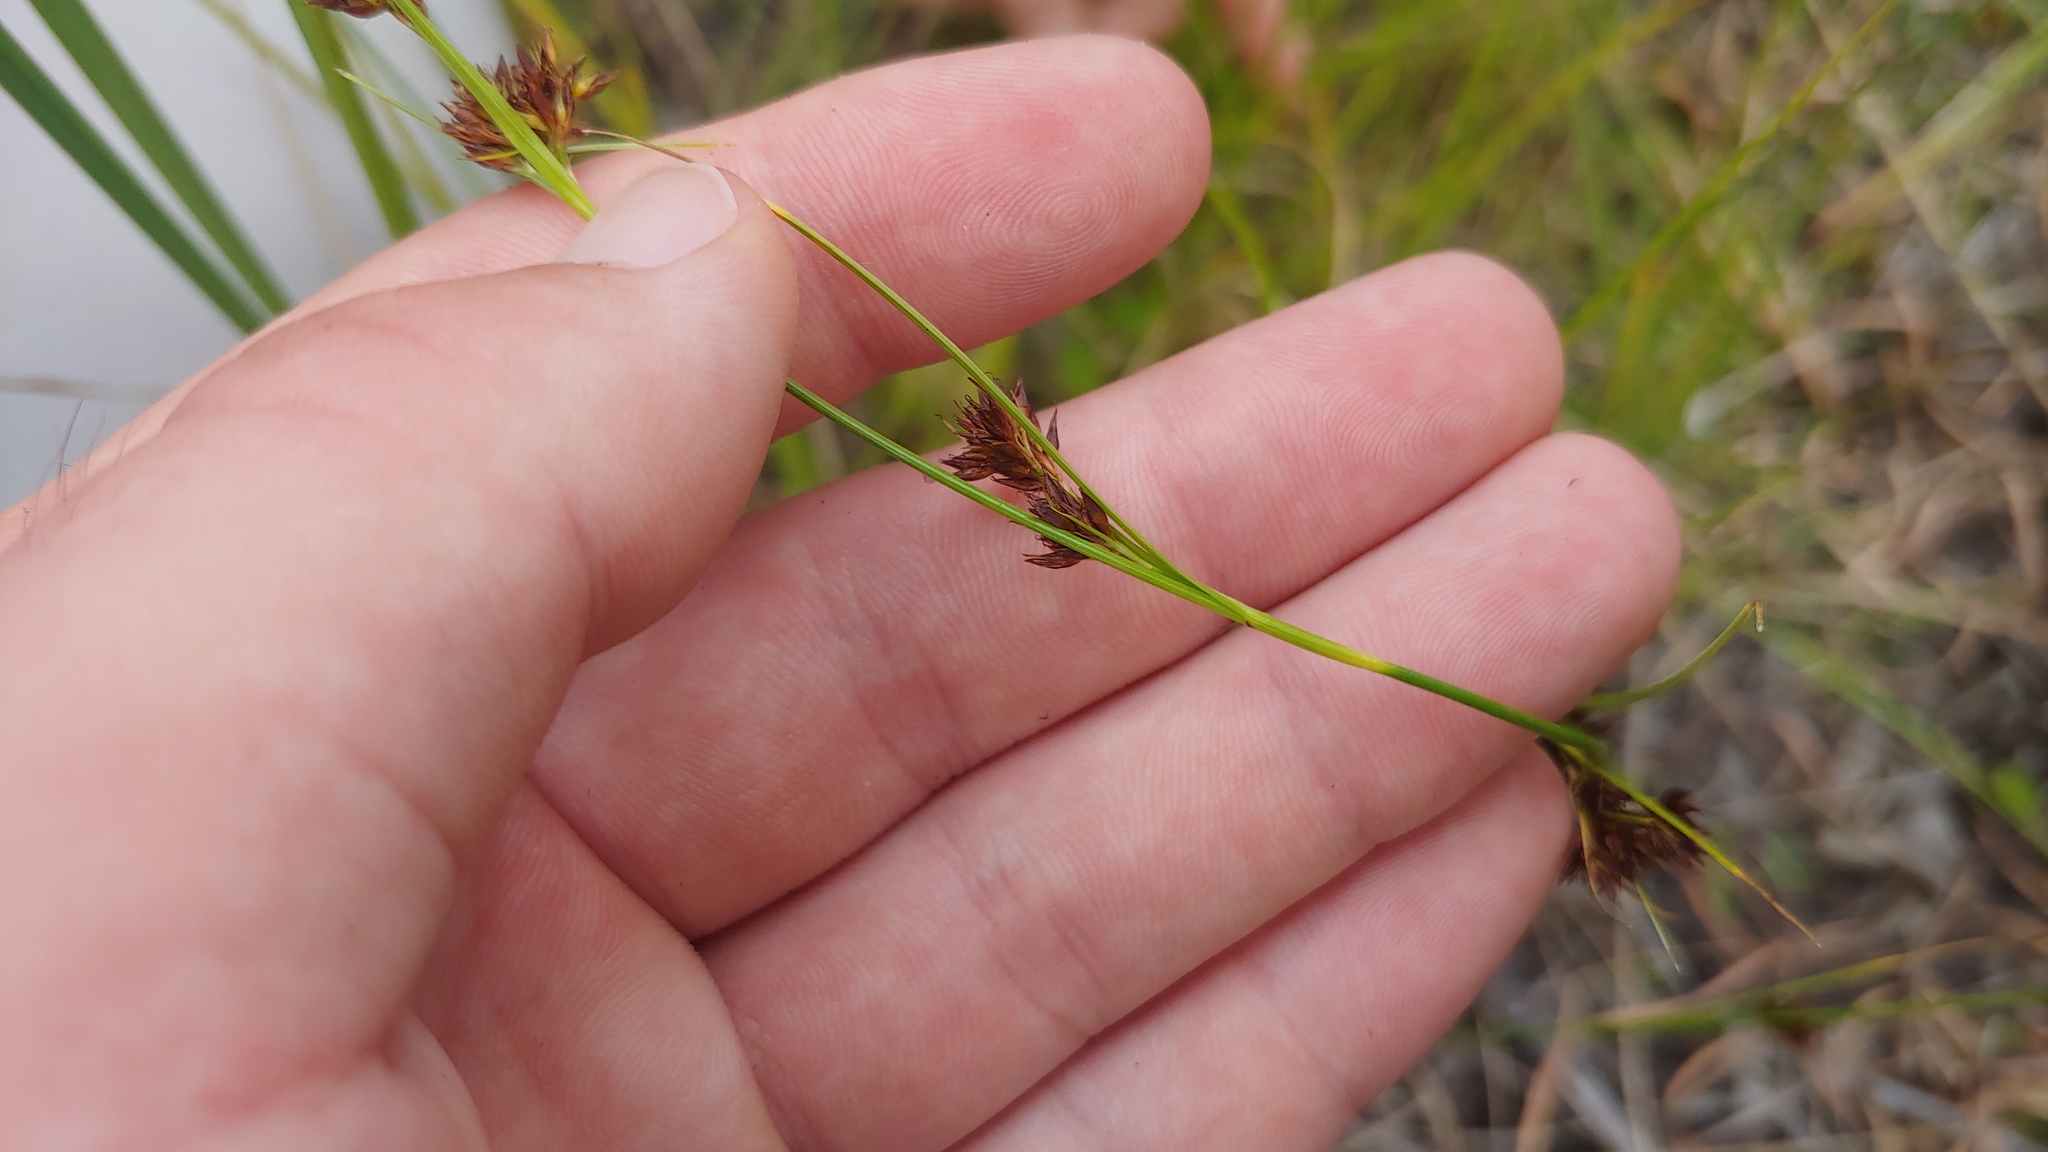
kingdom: Plantae
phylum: Tracheophyta
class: Liliopsida
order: Poales
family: Cyperaceae
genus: Rhynchospora
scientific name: Rhynchospora capitellata
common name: Brownish beaksedge
